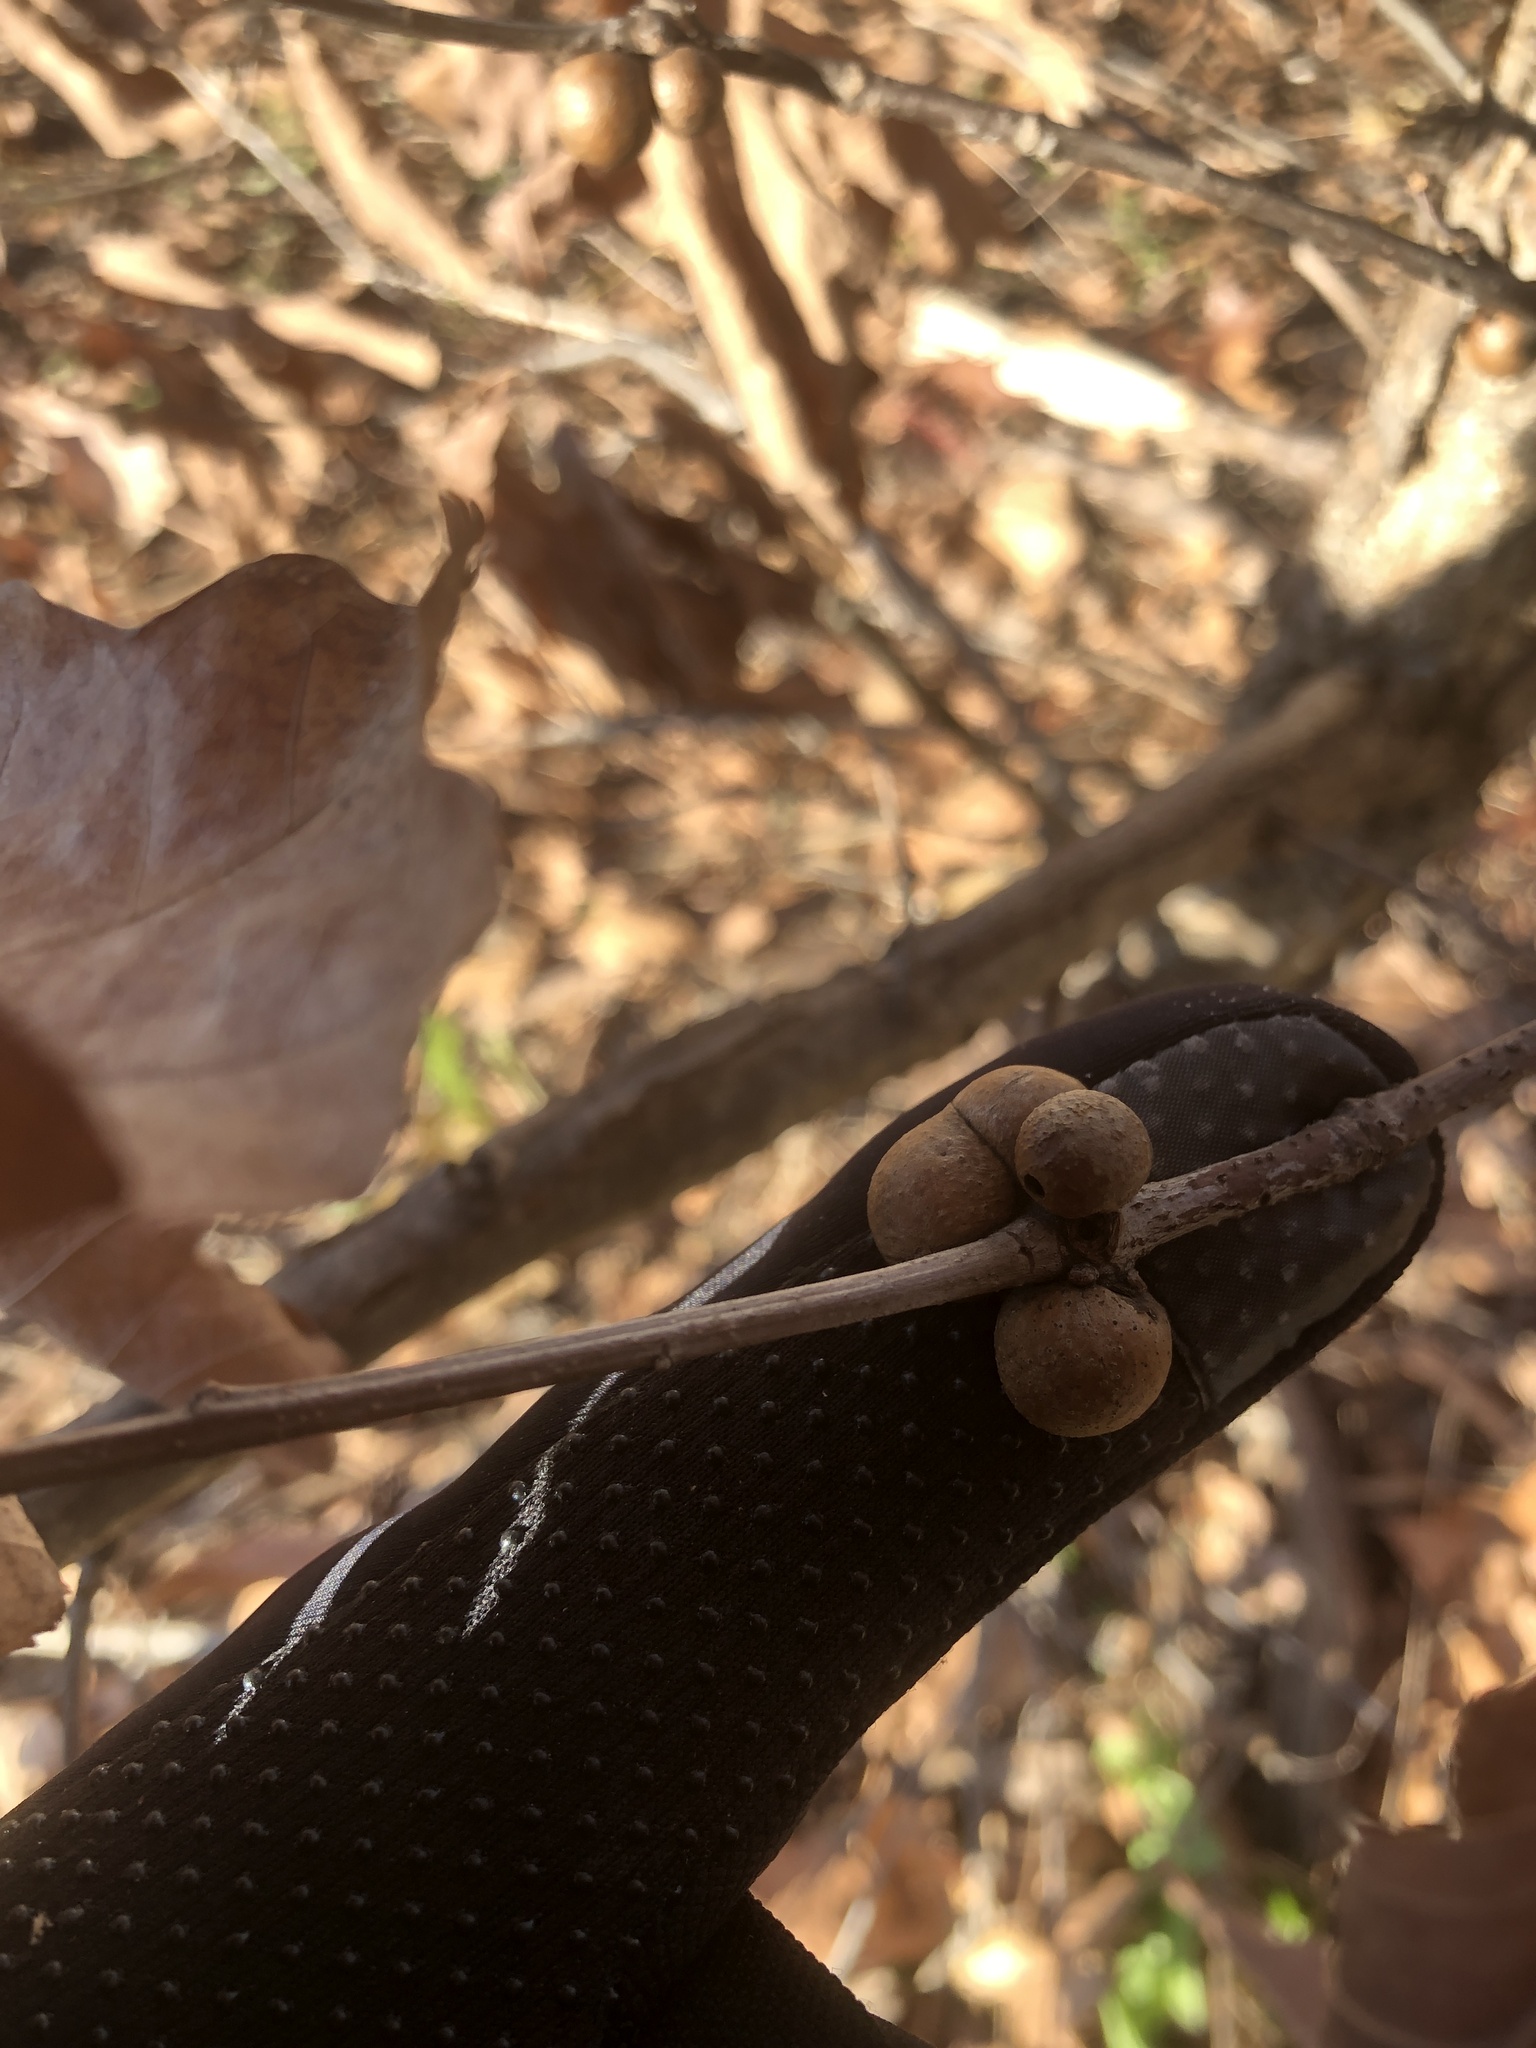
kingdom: Animalia
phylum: Arthropoda
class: Insecta
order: Hymenoptera
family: Cynipidae
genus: Disholcaspis
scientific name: Disholcaspis quercusglobulus
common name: Round bullet gall wasp
